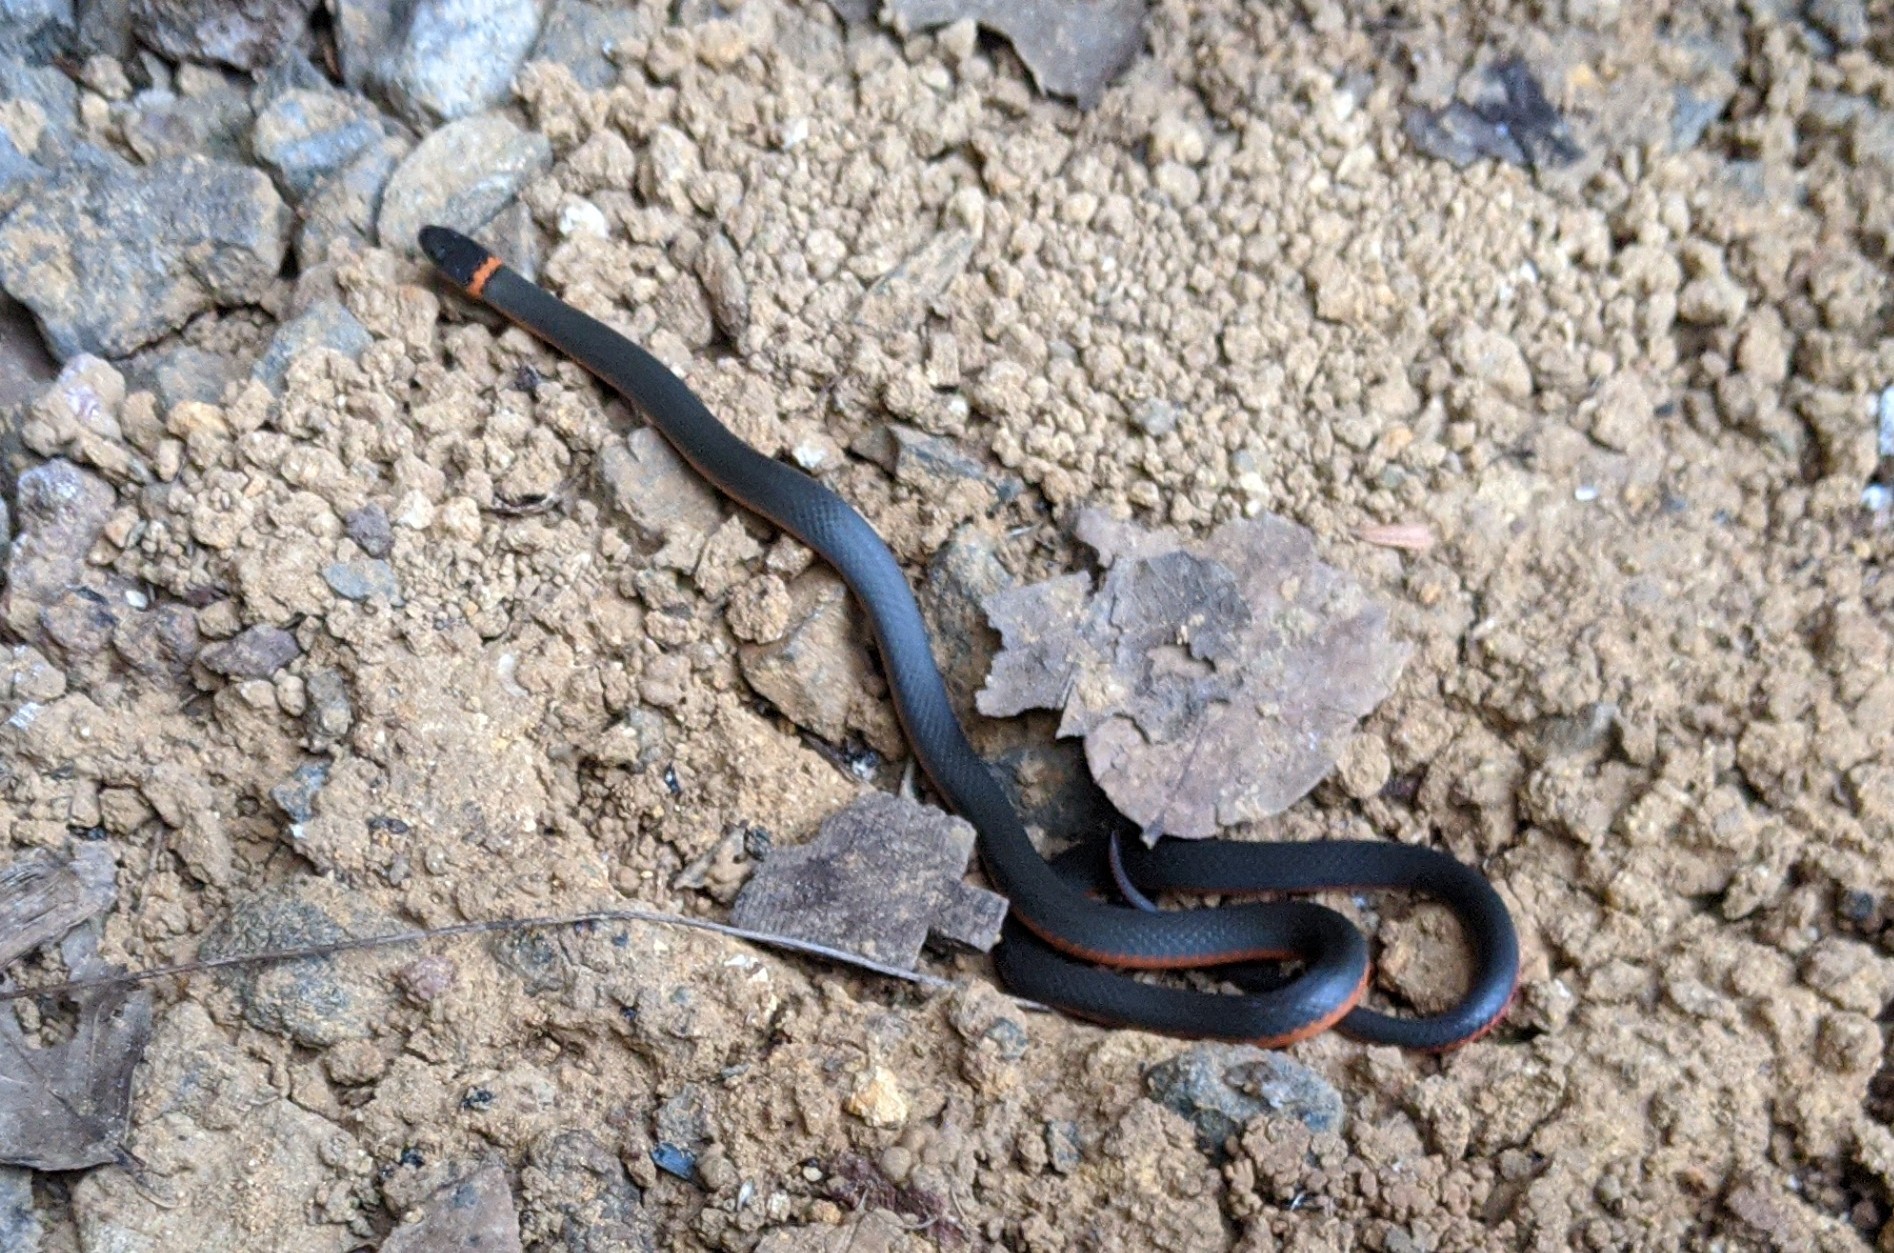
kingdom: Animalia
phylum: Chordata
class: Squamata
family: Colubridae
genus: Diadophis
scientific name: Diadophis punctatus
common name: Ringneck snake
